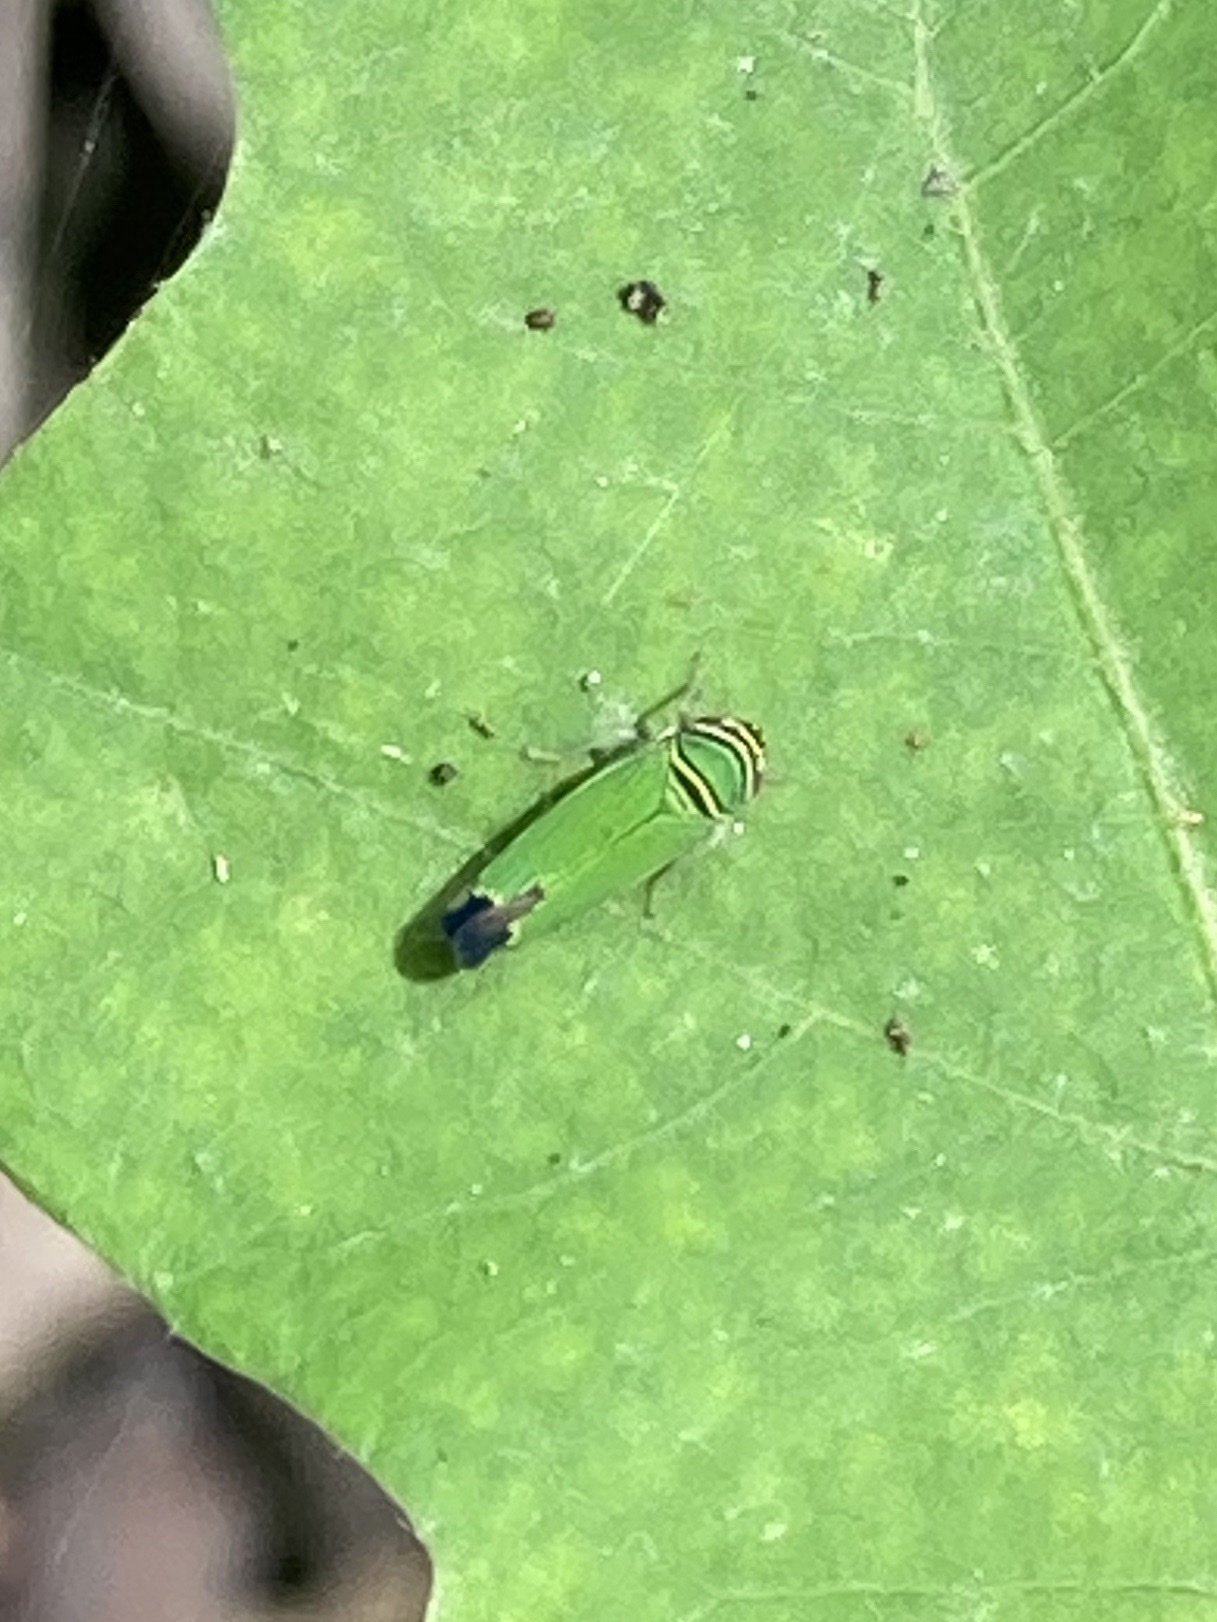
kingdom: Animalia
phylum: Arthropoda
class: Insecta
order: Hemiptera
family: Cicadellidae
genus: Tylozygus
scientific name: Tylozygus geometricus
